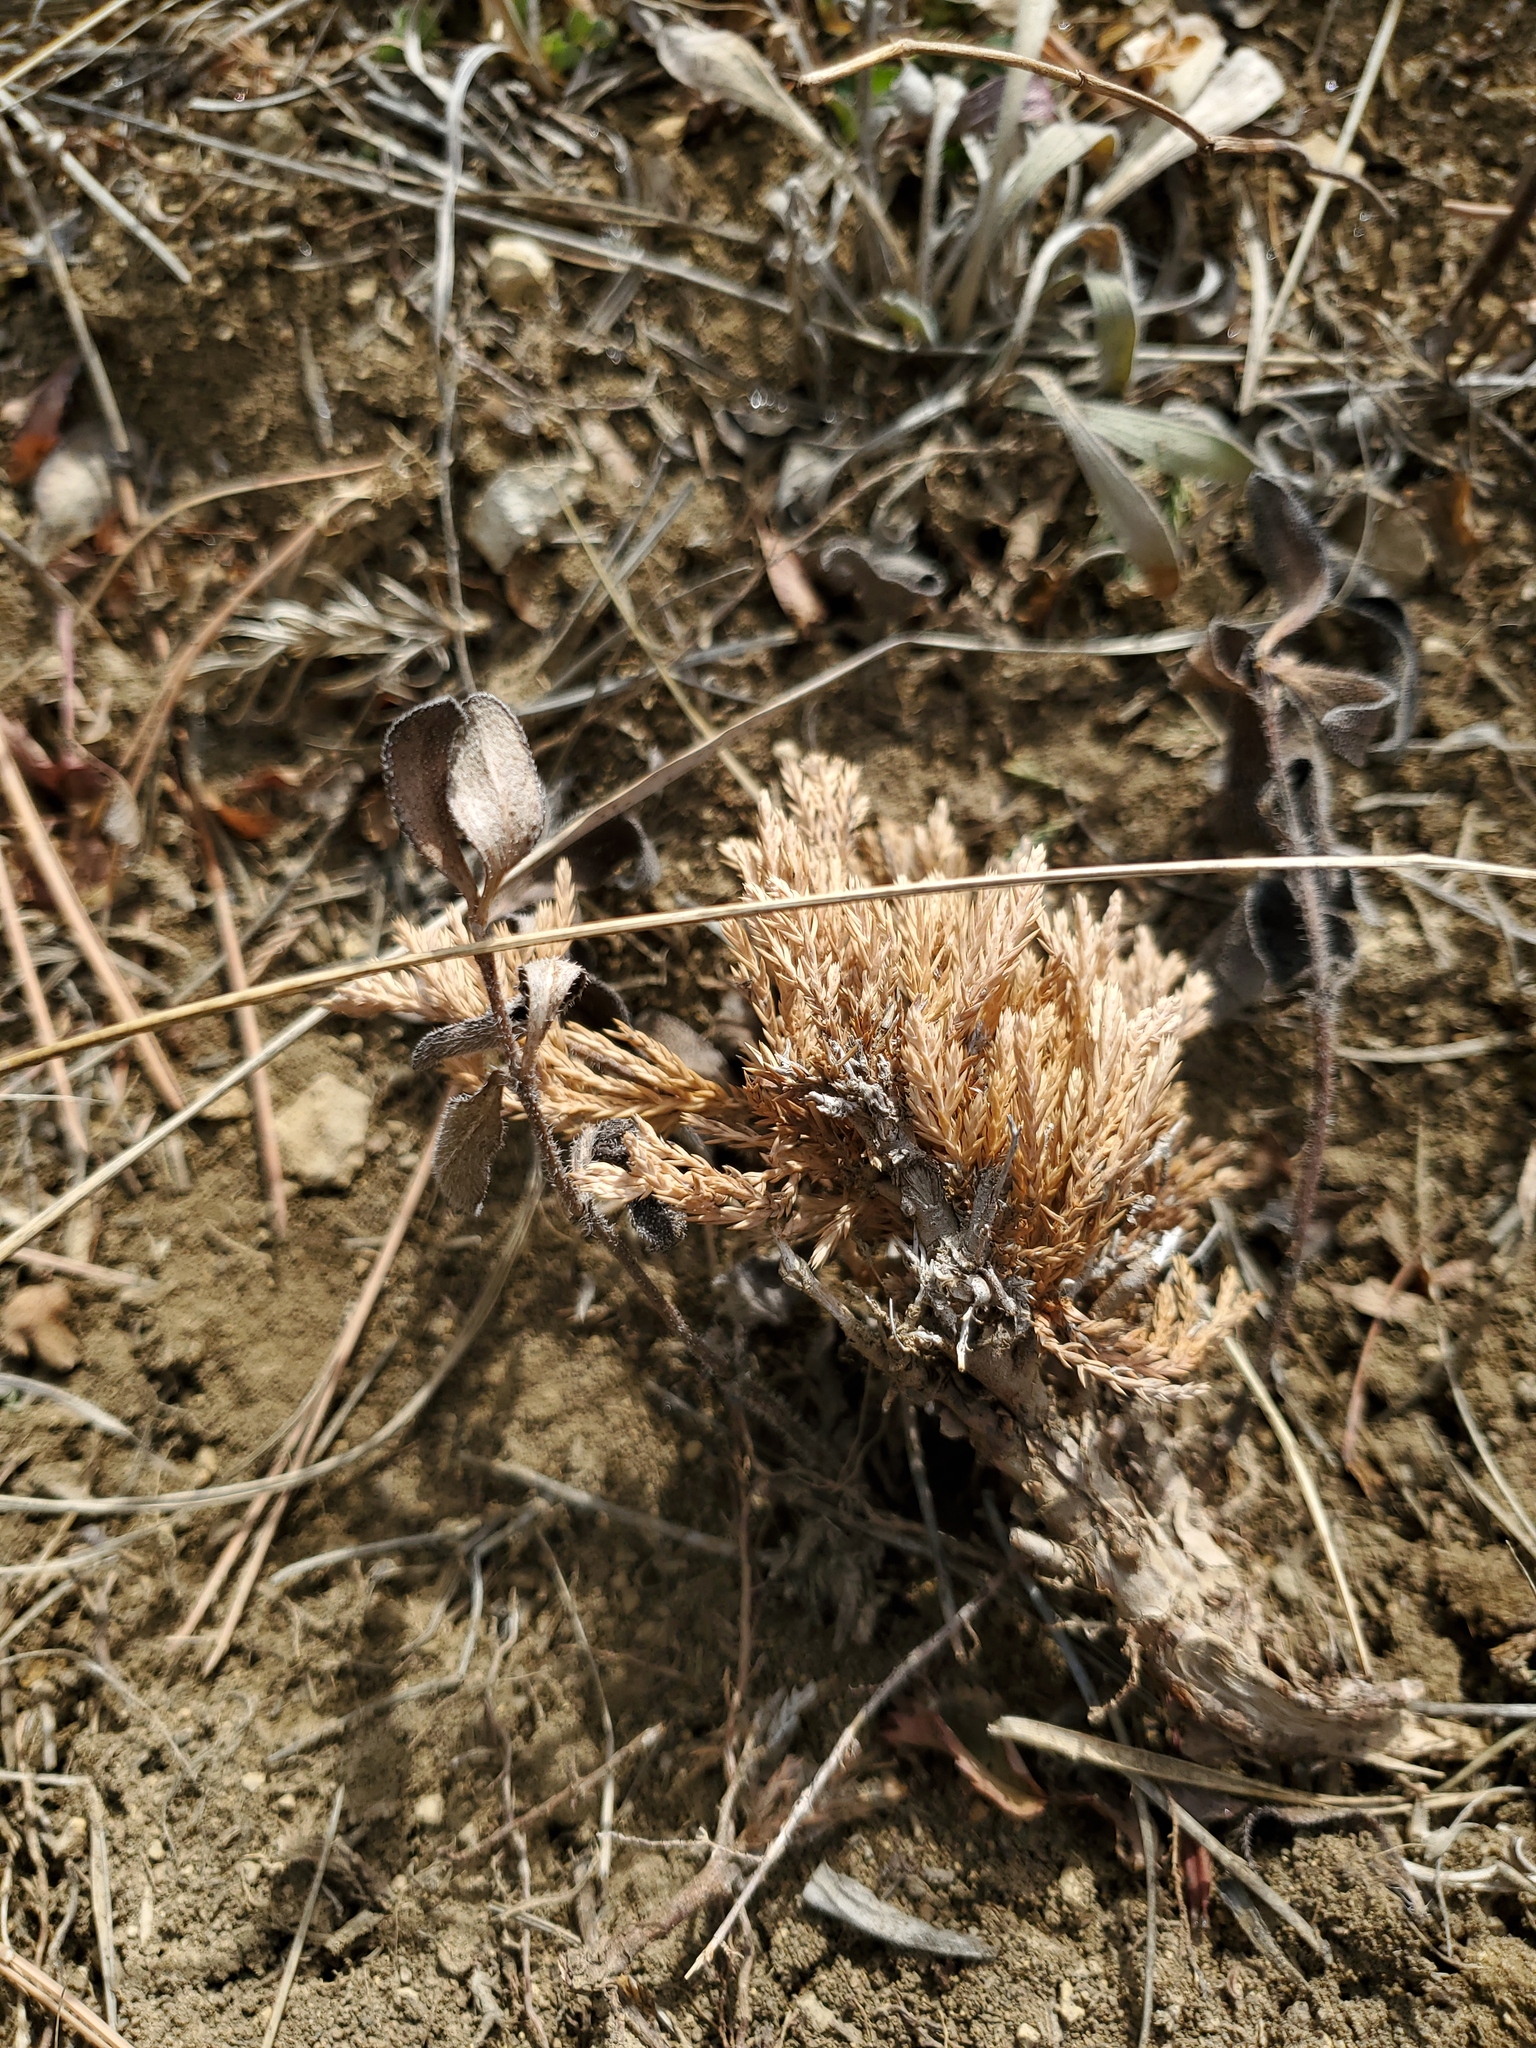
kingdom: Plantae
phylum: Tracheophyta
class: Pinopsida
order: Pinales
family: Cupressaceae
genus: Juniperus
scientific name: Juniperus horizontalis
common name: Creeping juniper
